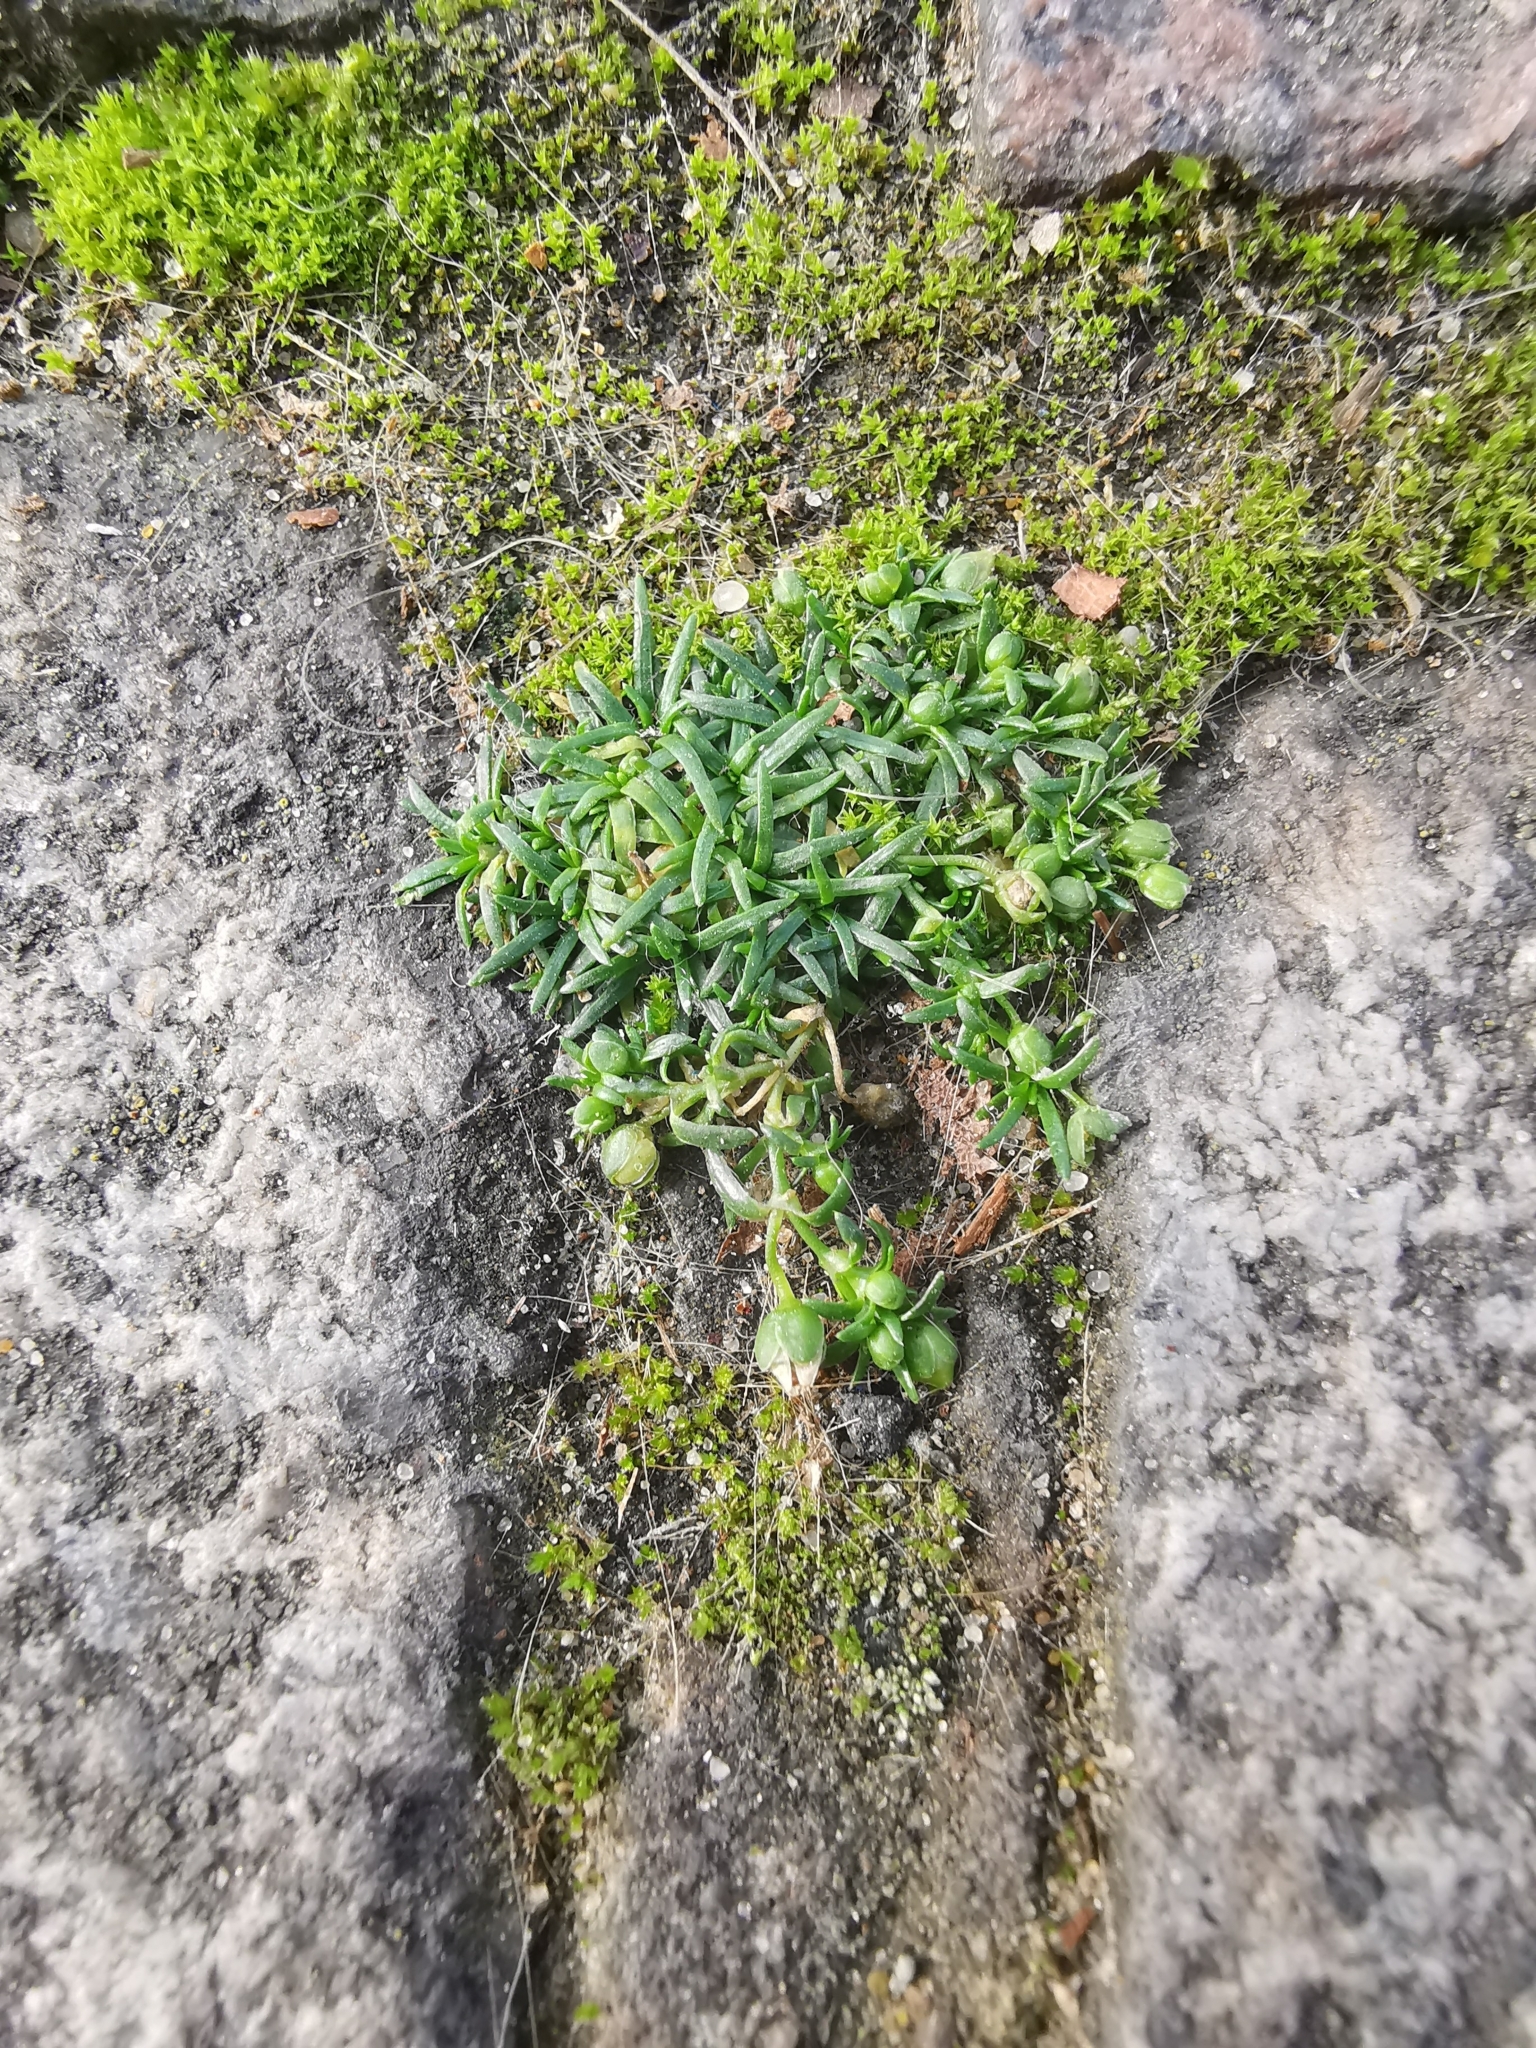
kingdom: Plantae
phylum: Tracheophyta
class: Magnoliopsida
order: Caryophyllales
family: Caryophyllaceae
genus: Sagina
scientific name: Sagina procumbens
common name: Procumbent pearlwort
